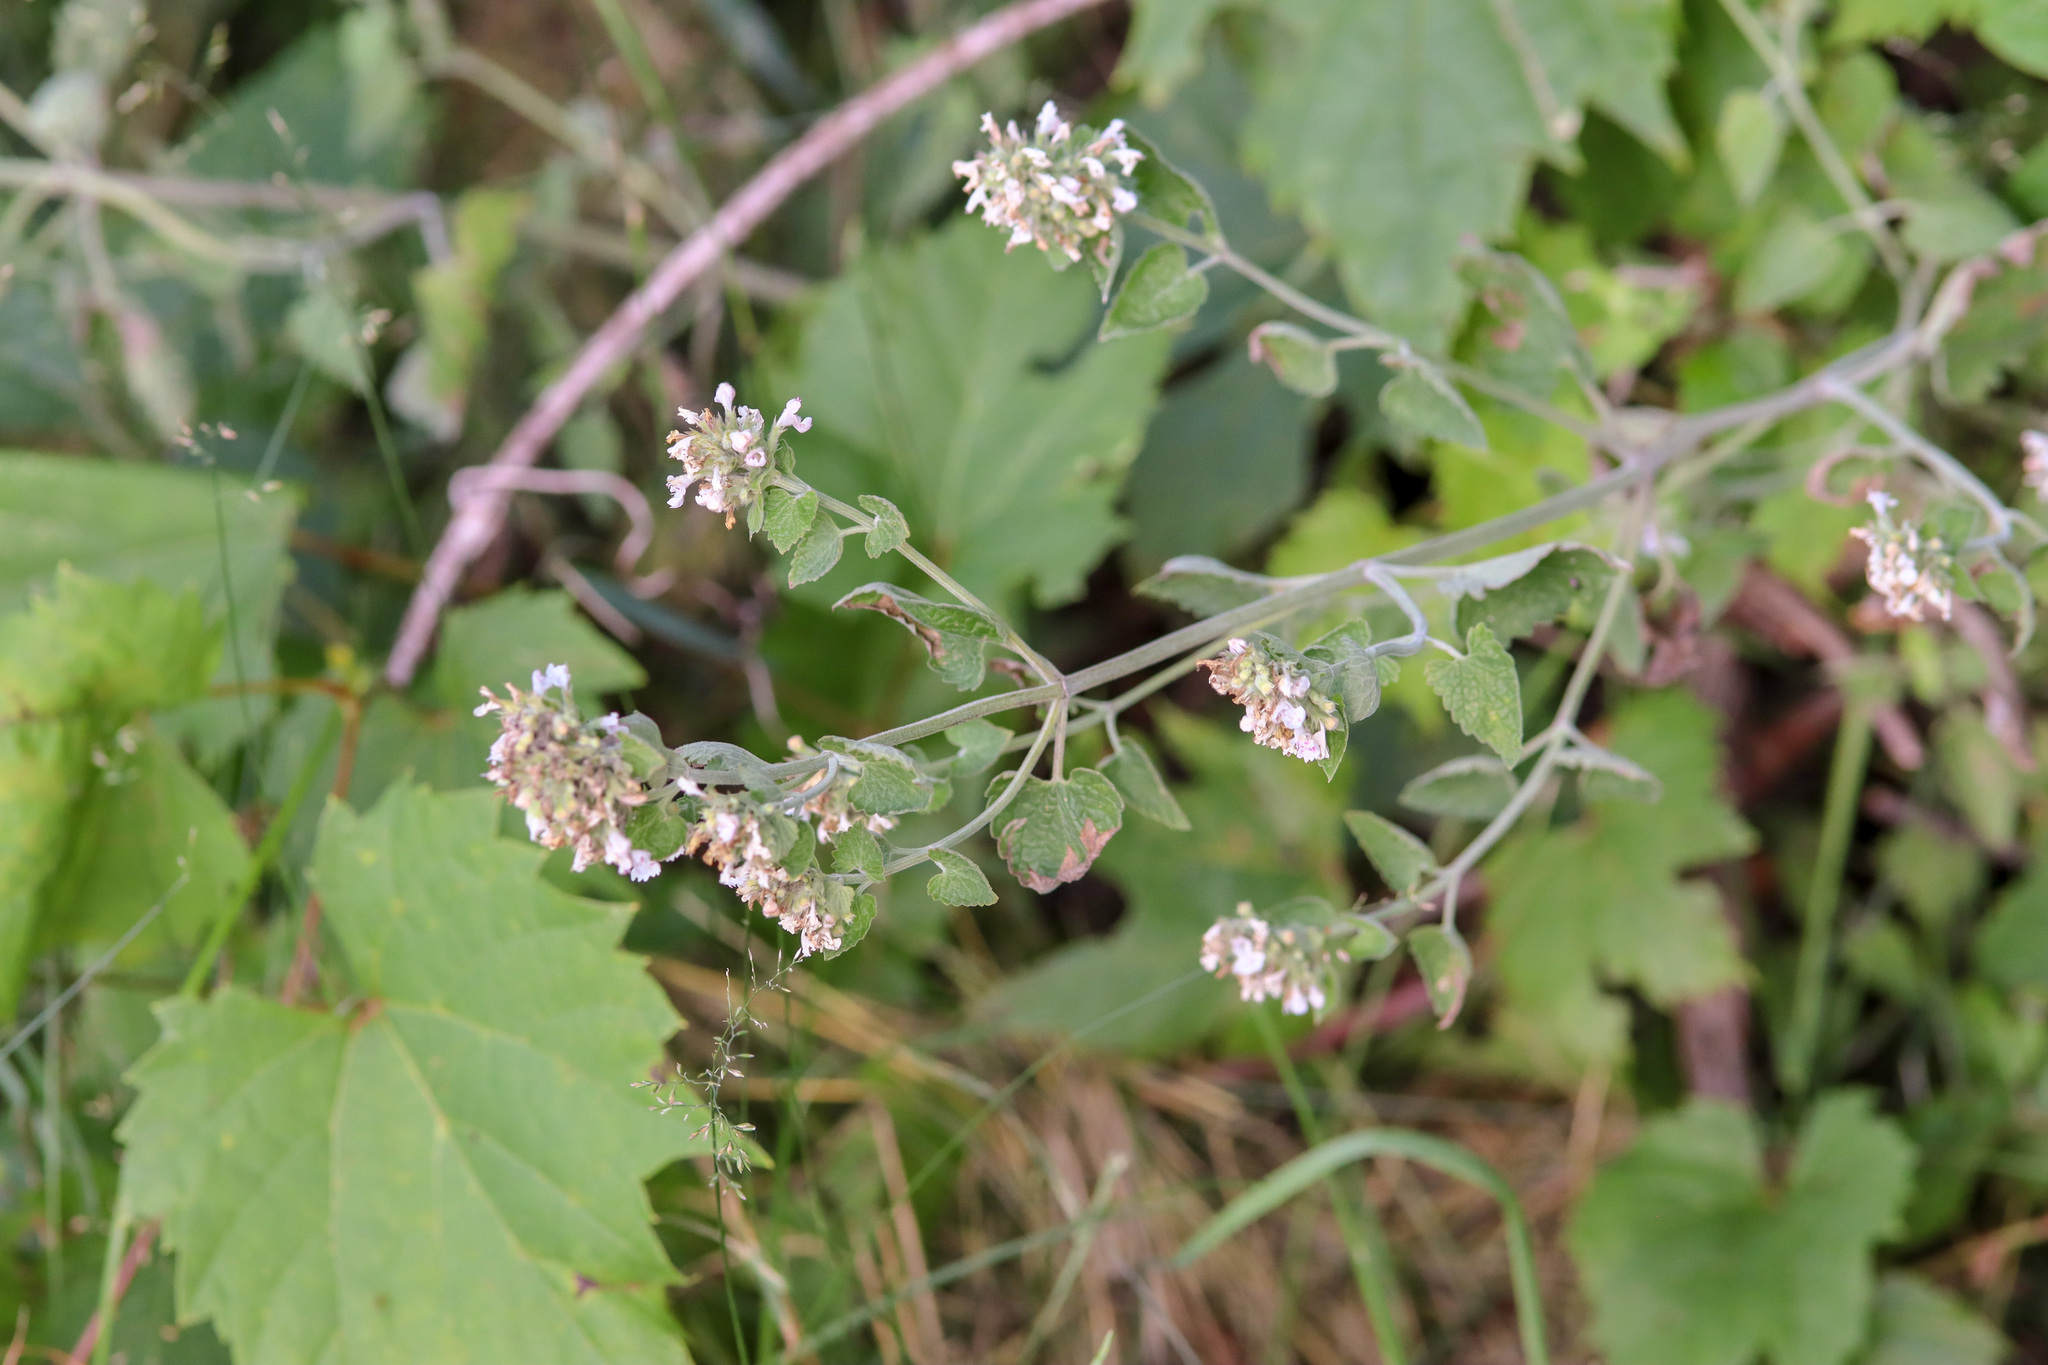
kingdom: Plantae
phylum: Tracheophyta
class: Magnoliopsida
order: Lamiales
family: Lamiaceae
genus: Nepeta
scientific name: Nepeta cataria
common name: Catnip
